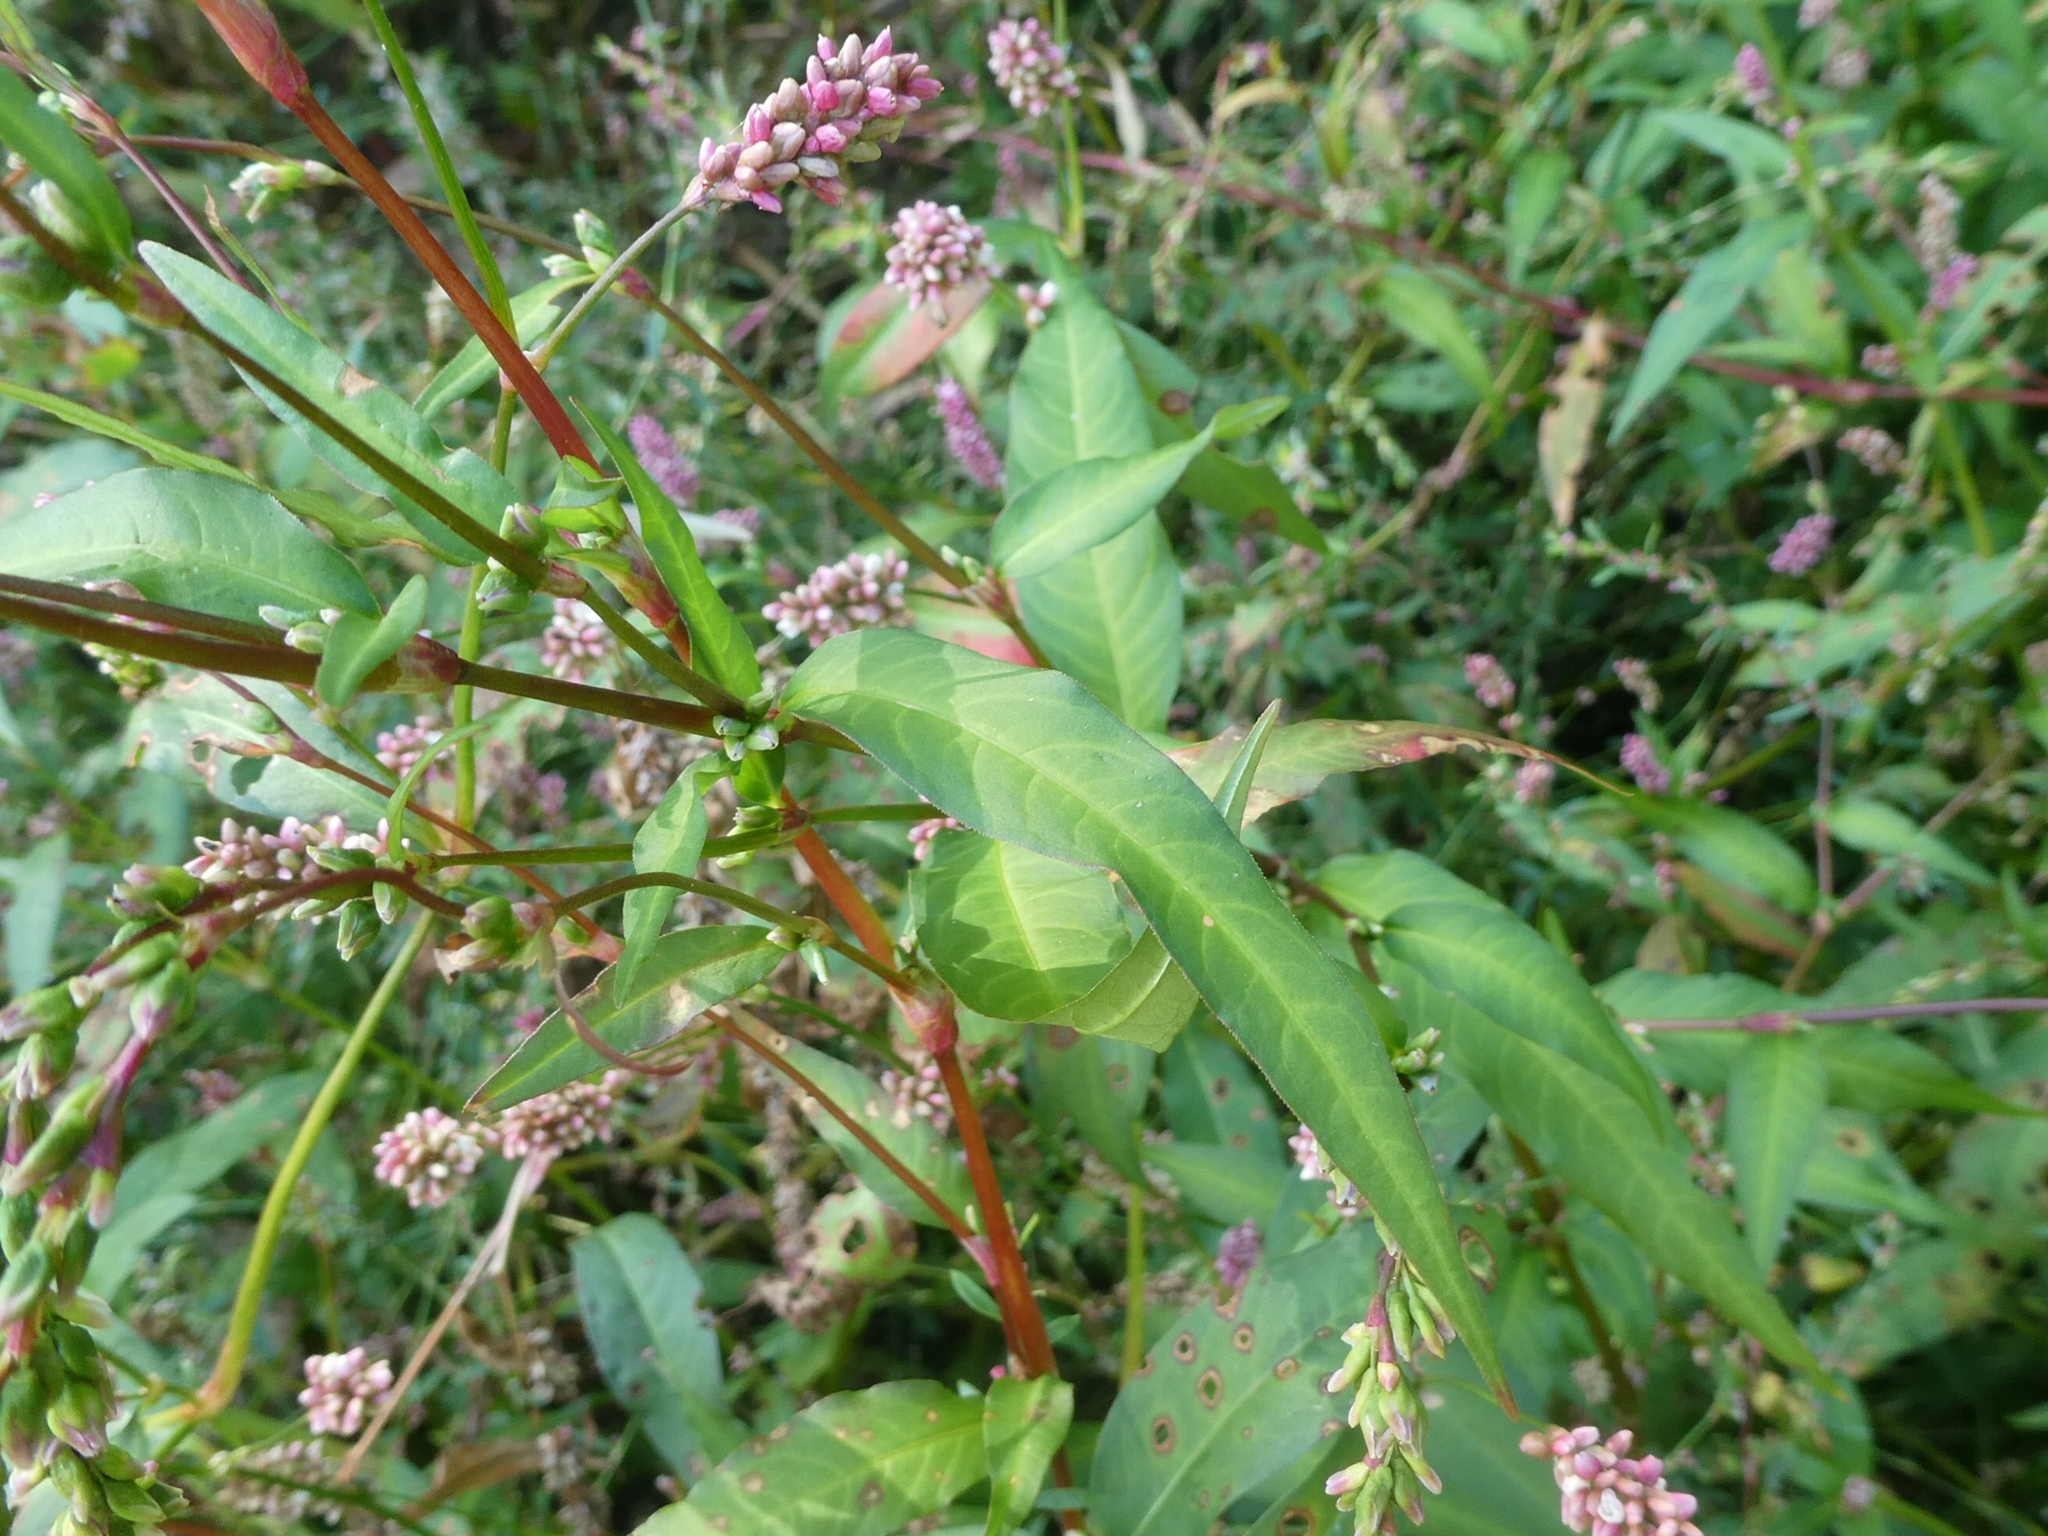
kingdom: Plantae
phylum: Tracheophyta
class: Magnoliopsida
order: Caryophyllales
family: Polygonaceae
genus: Persicaria
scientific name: Persicaria maculosa
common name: Redshank
